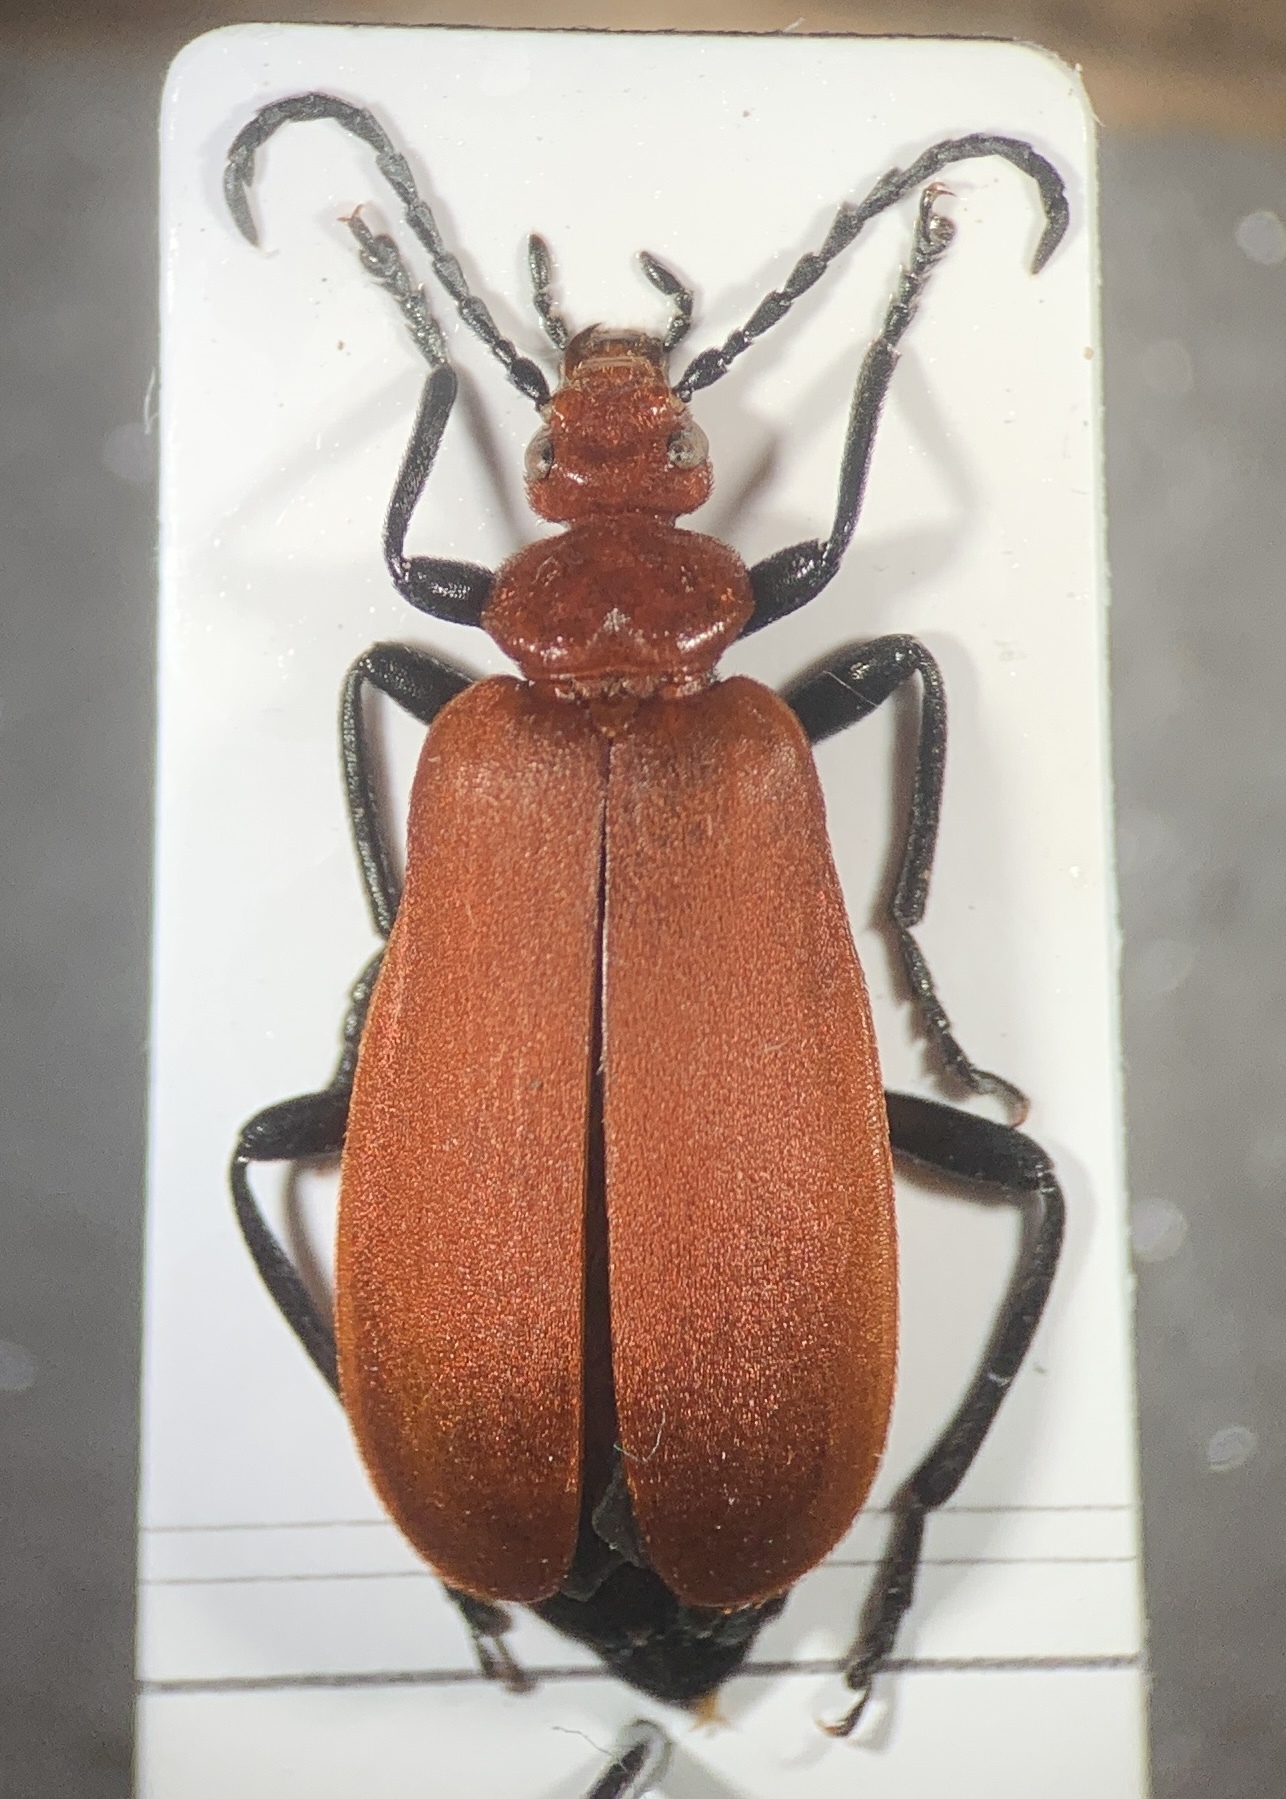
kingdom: Animalia
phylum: Arthropoda
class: Insecta
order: Coleoptera
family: Pyrochroidae
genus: Pyrochroa
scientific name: Pyrochroa serraticornis
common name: Red-headed cardinal beetle
